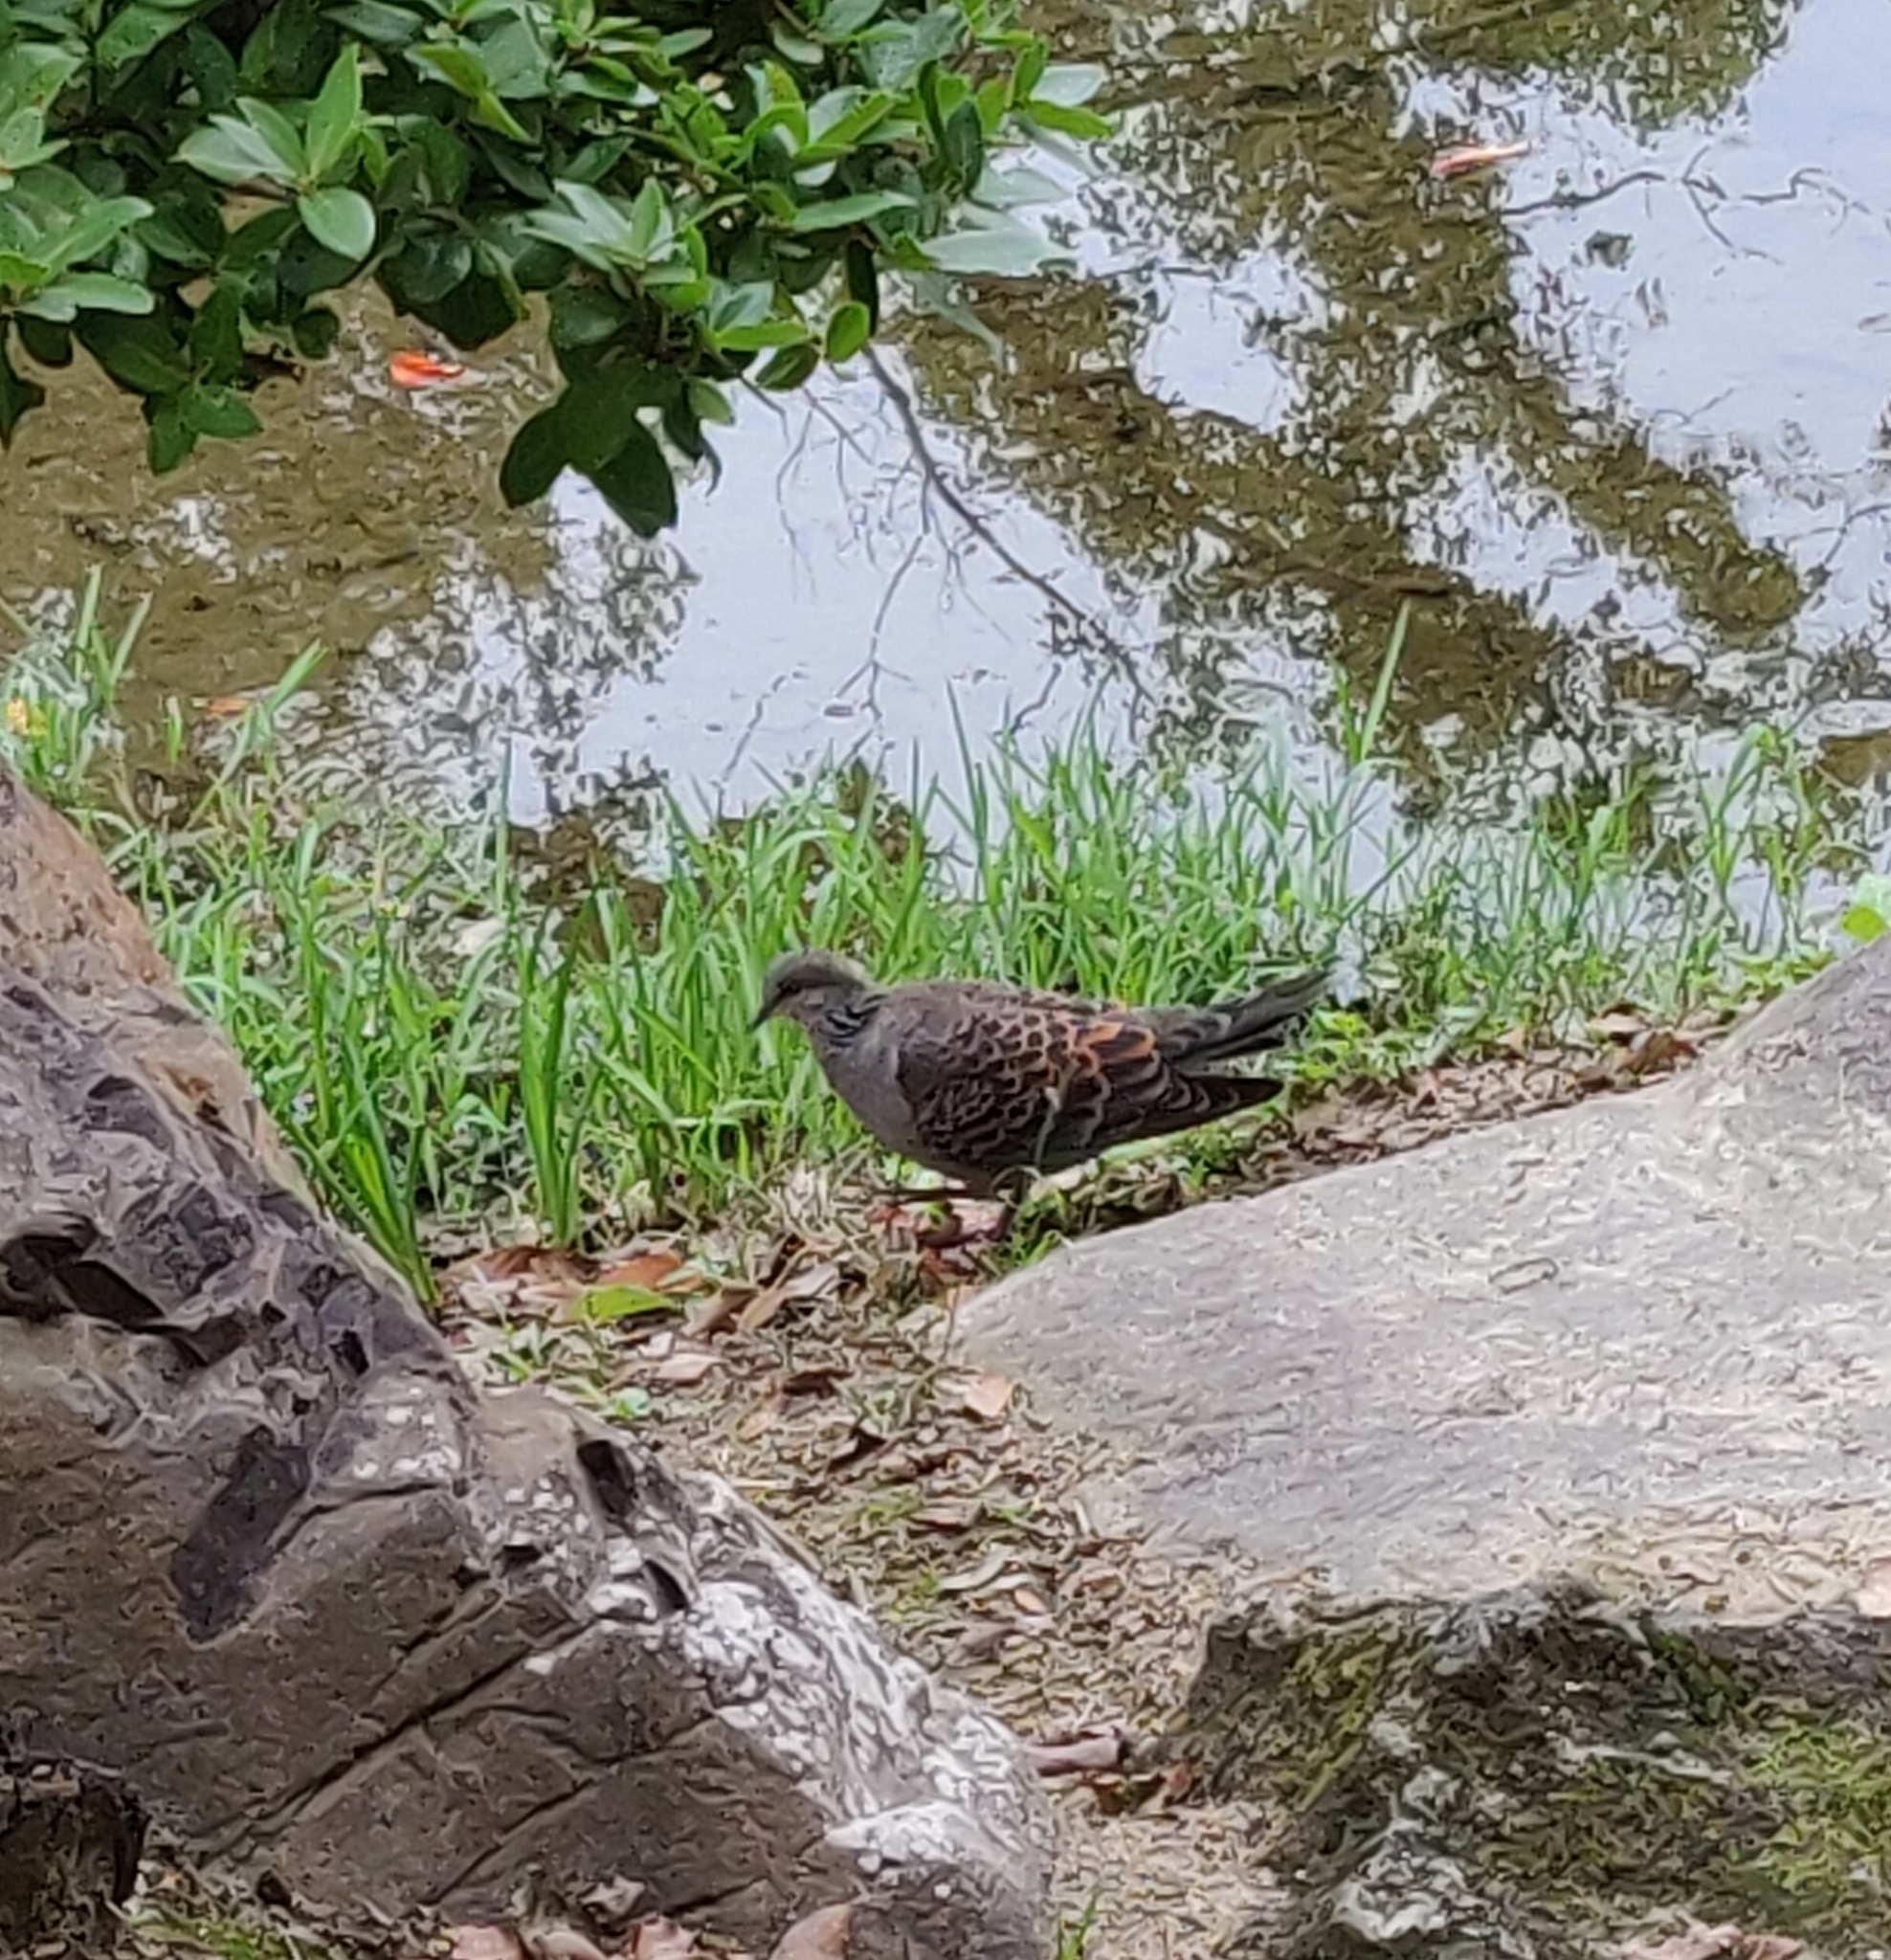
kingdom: Animalia
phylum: Chordata
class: Aves
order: Columbiformes
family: Columbidae
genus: Streptopelia
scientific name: Streptopelia orientalis
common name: Oriental turtle dove
